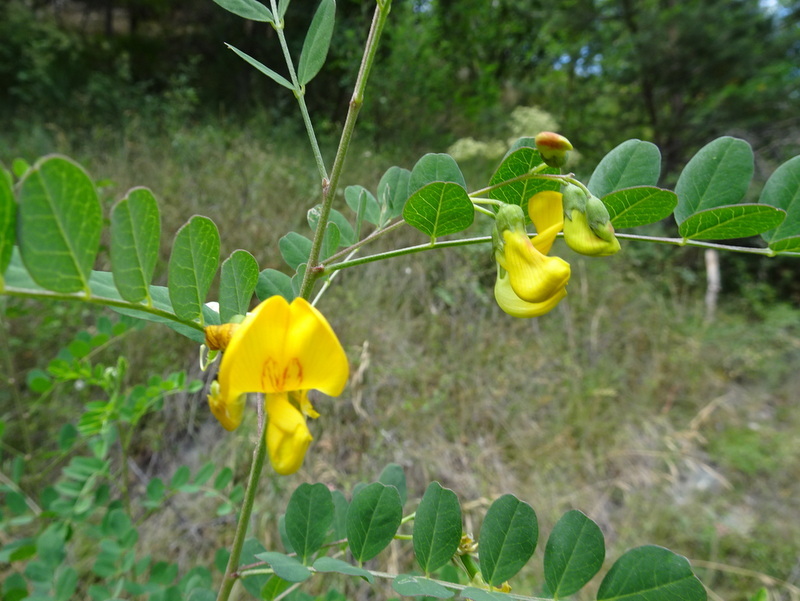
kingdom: Plantae
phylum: Tracheophyta
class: Magnoliopsida
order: Fabales
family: Fabaceae
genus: Colutea
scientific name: Colutea arborescens
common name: Bladder-senna
